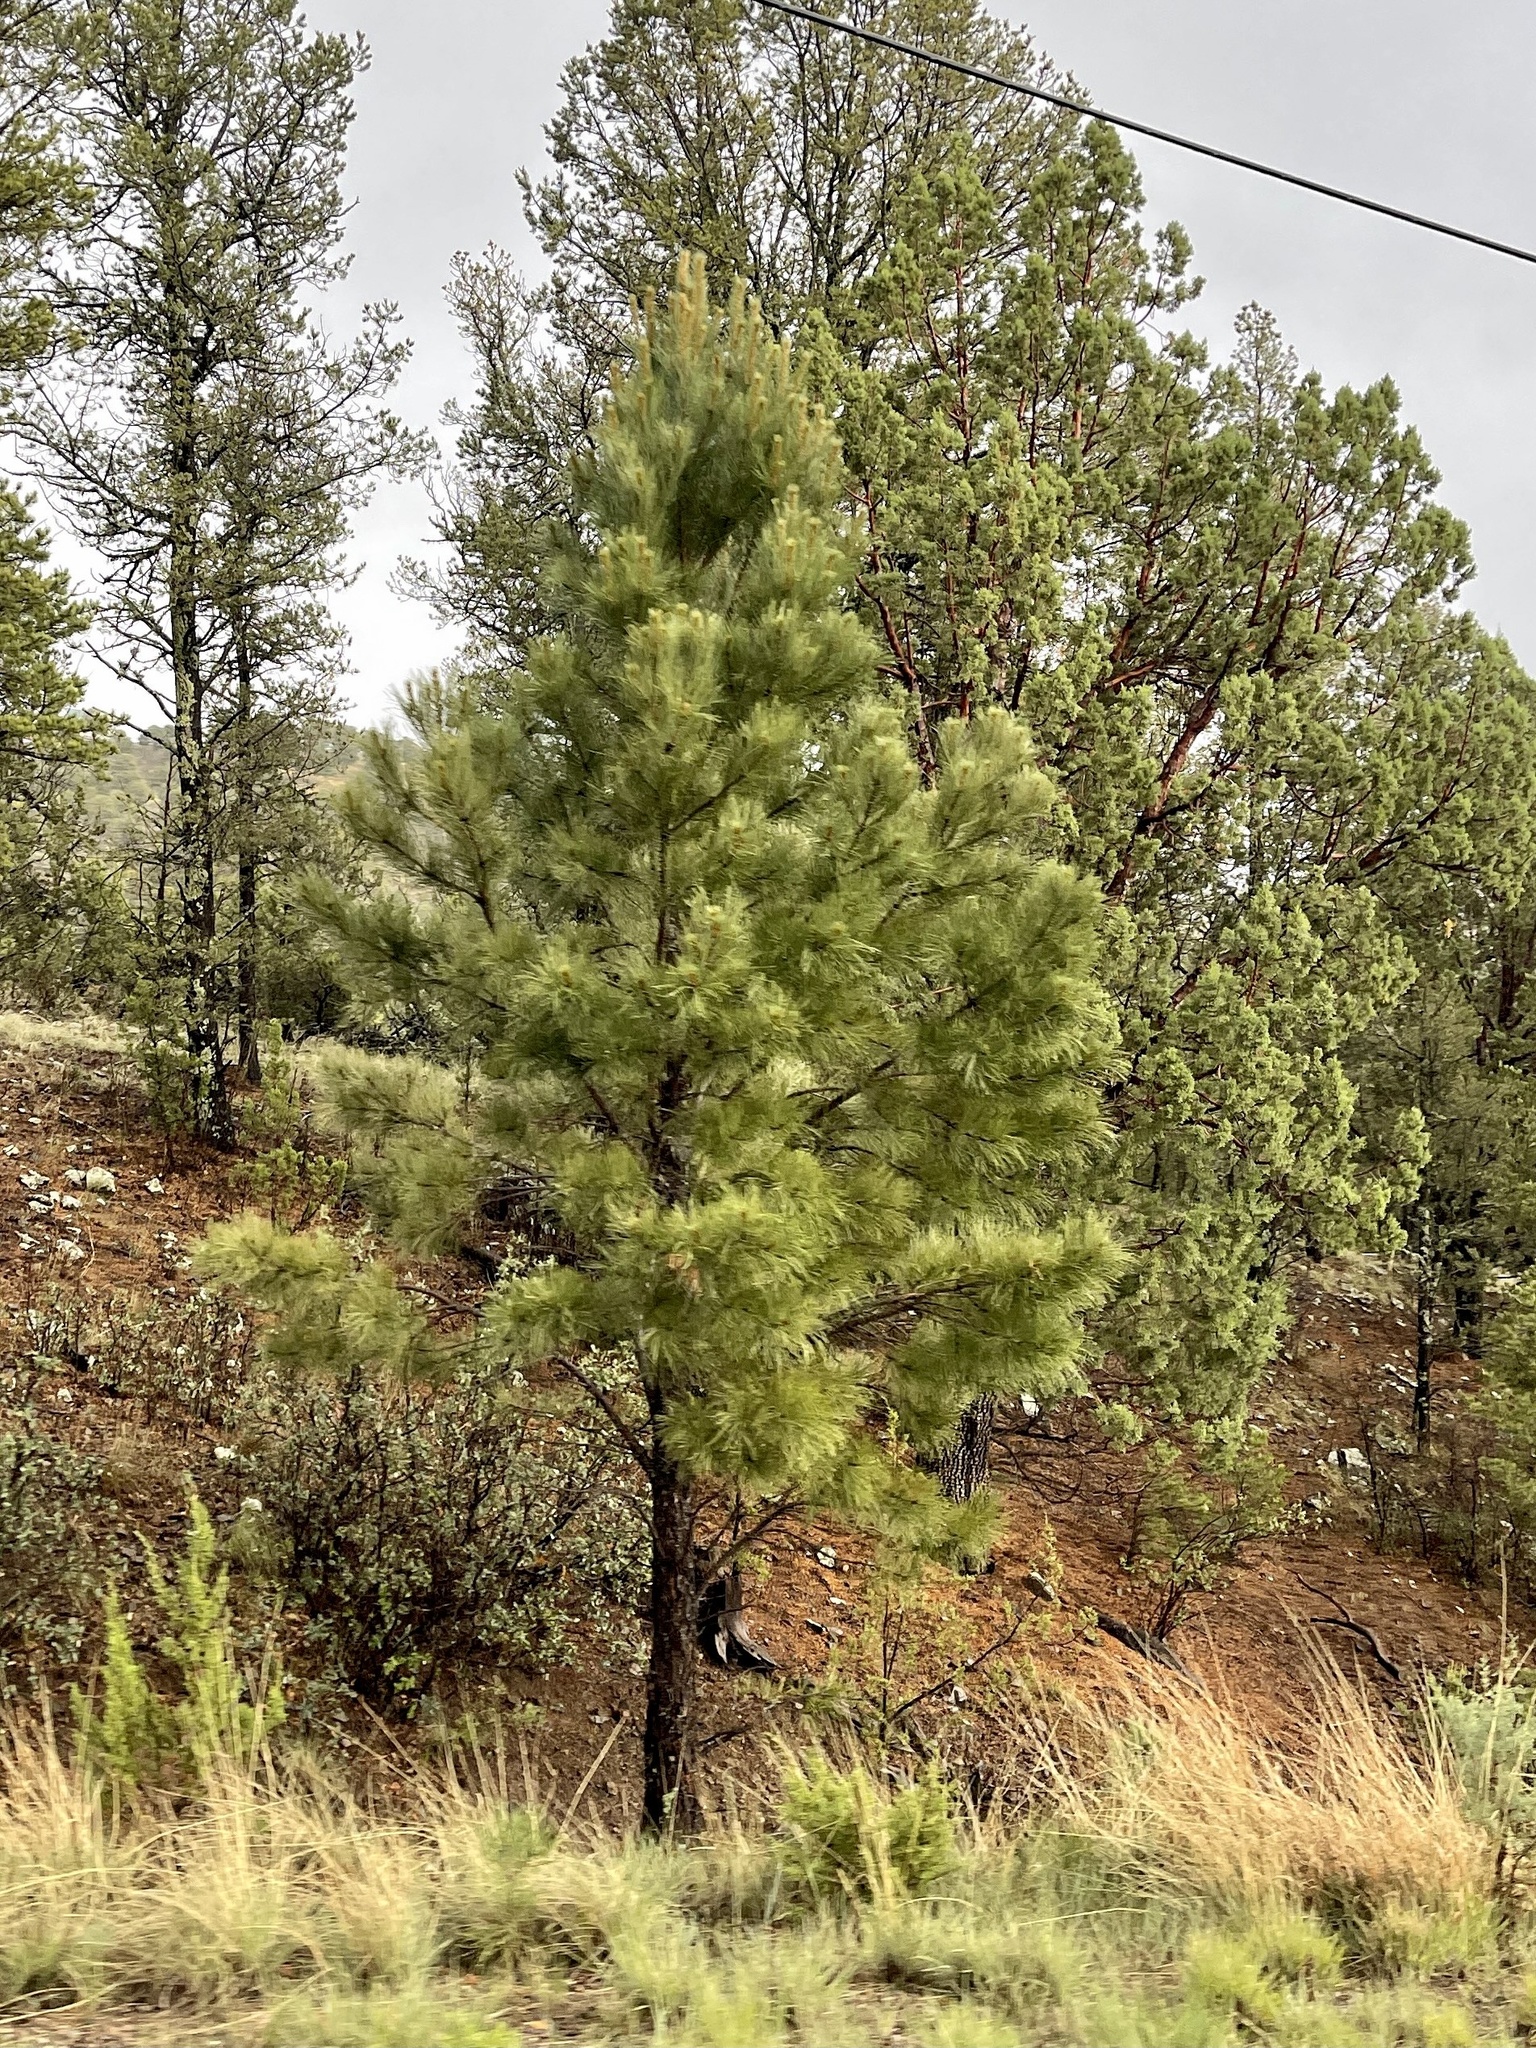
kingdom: Plantae
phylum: Tracheophyta
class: Pinopsida
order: Pinales
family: Pinaceae
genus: Pinus
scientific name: Pinus ponderosa
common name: Western yellow-pine
